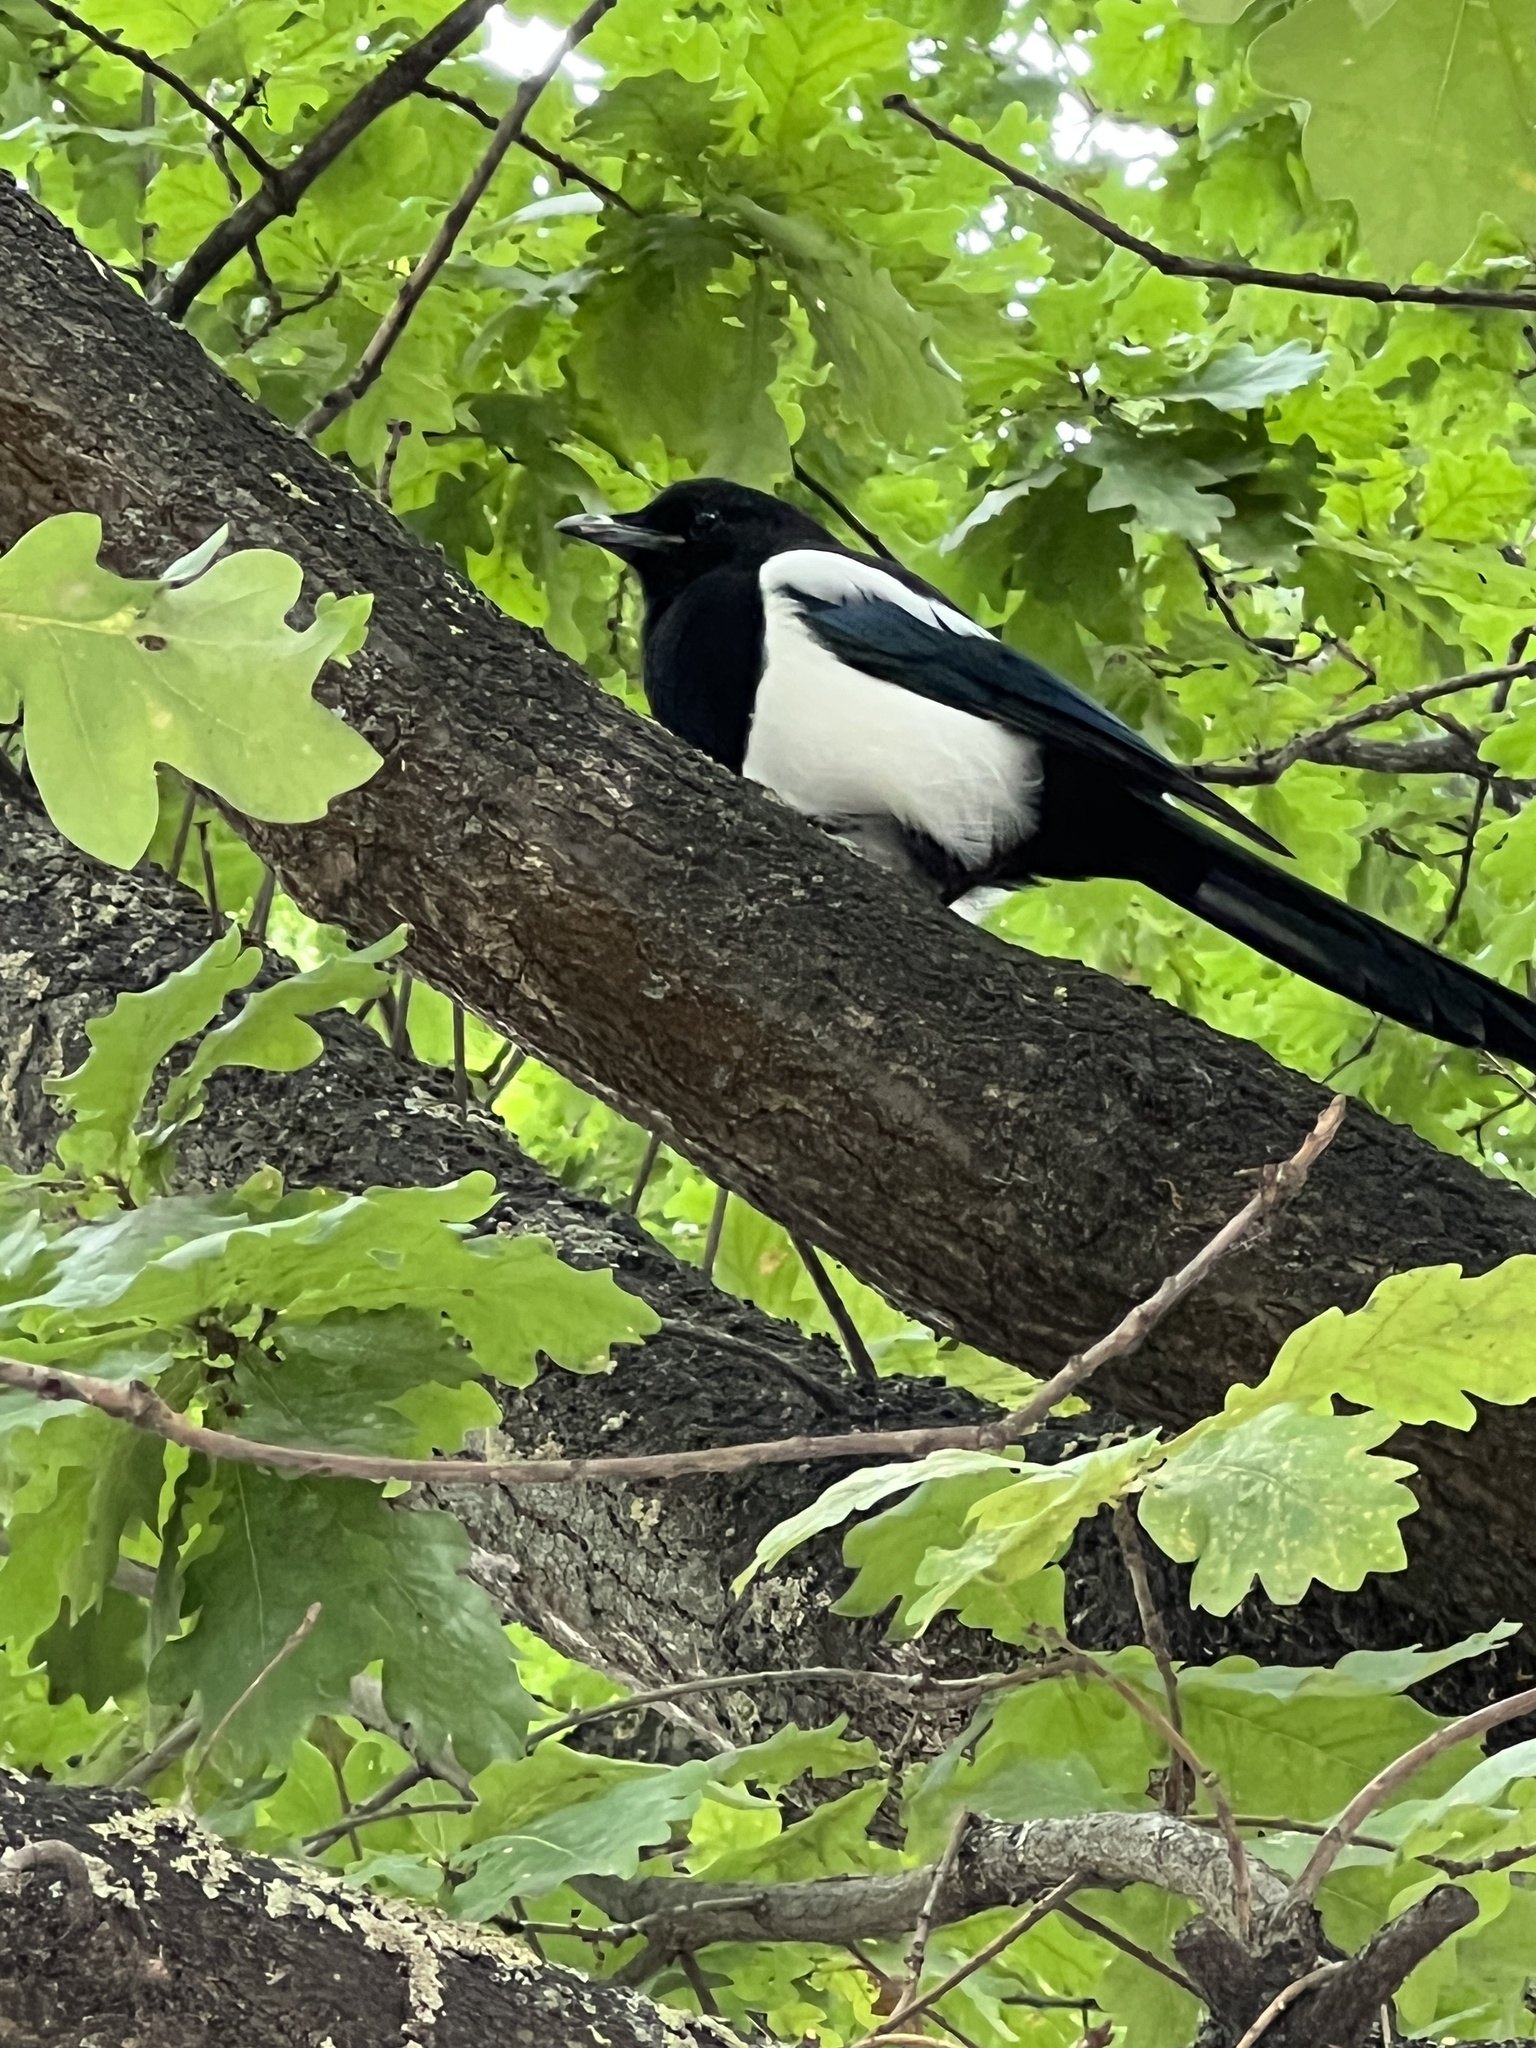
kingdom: Animalia
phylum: Chordata
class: Aves
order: Passeriformes
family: Corvidae
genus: Pica
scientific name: Pica pica
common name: Eurasian magpie
